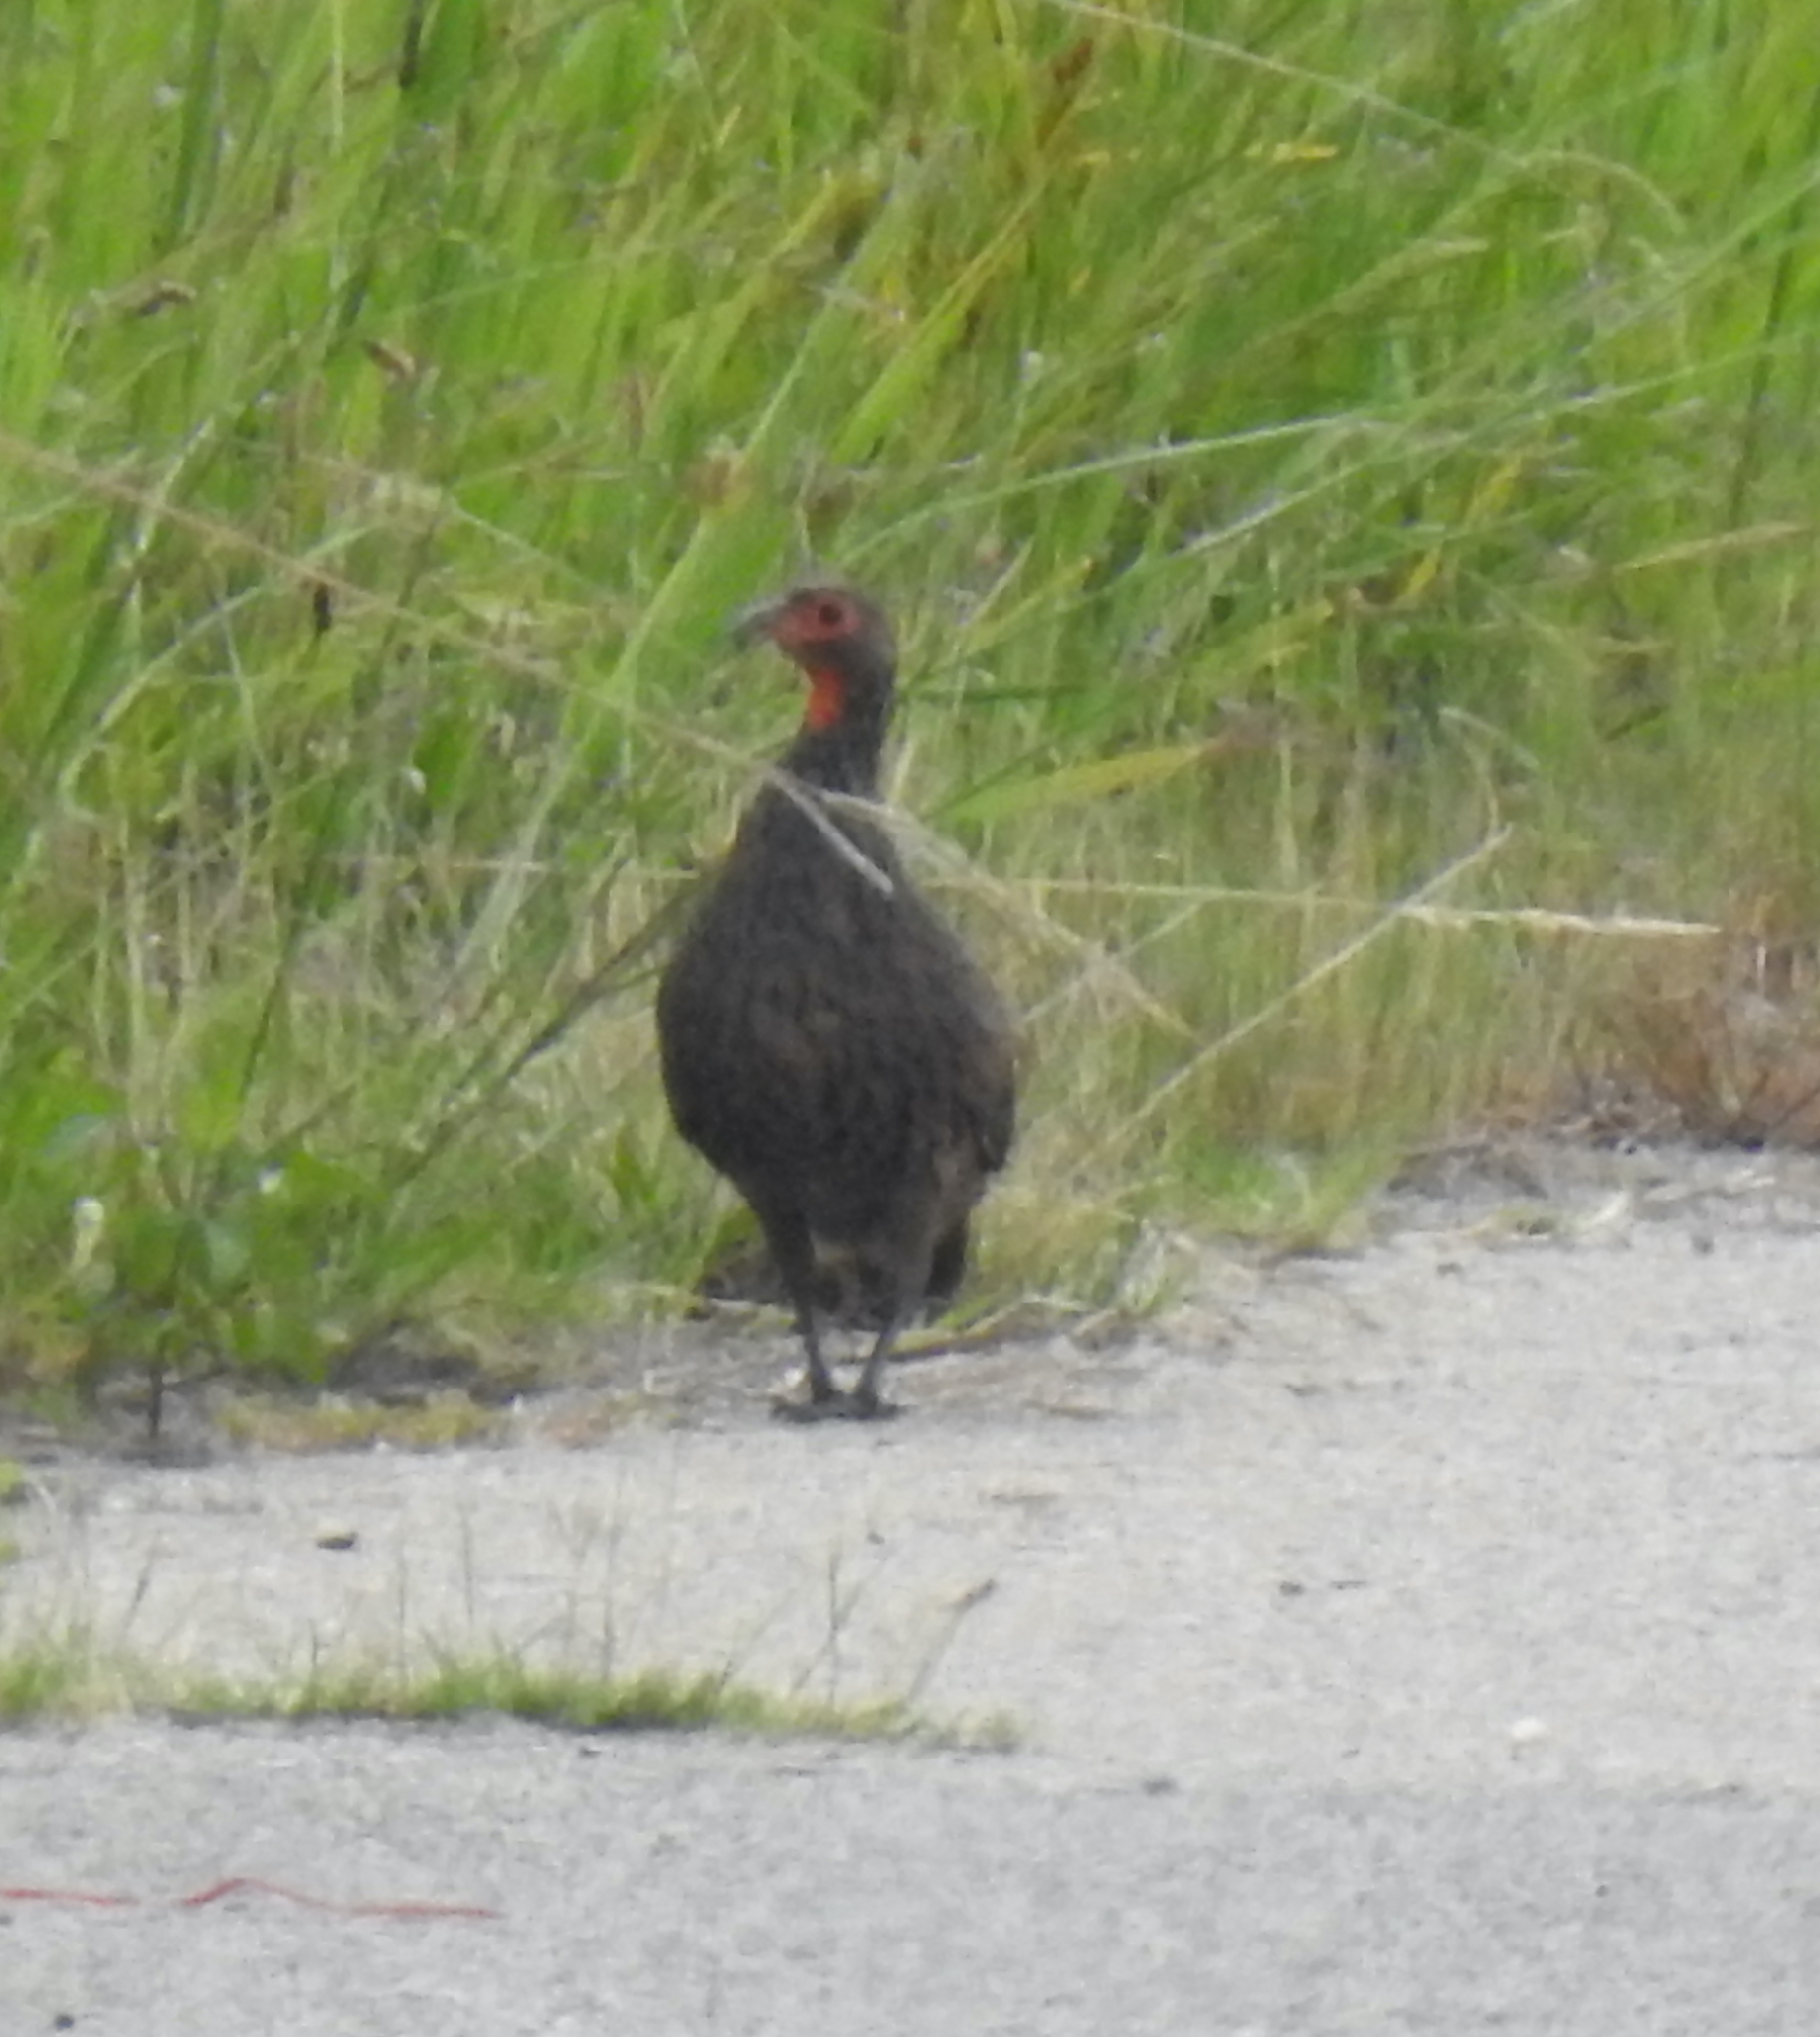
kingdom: Animalia
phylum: Chordata
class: Aves
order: Galliformes
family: Phasianidae
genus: Pternistis
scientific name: Pternistis swainsonii
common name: Swainson's spurfowl
